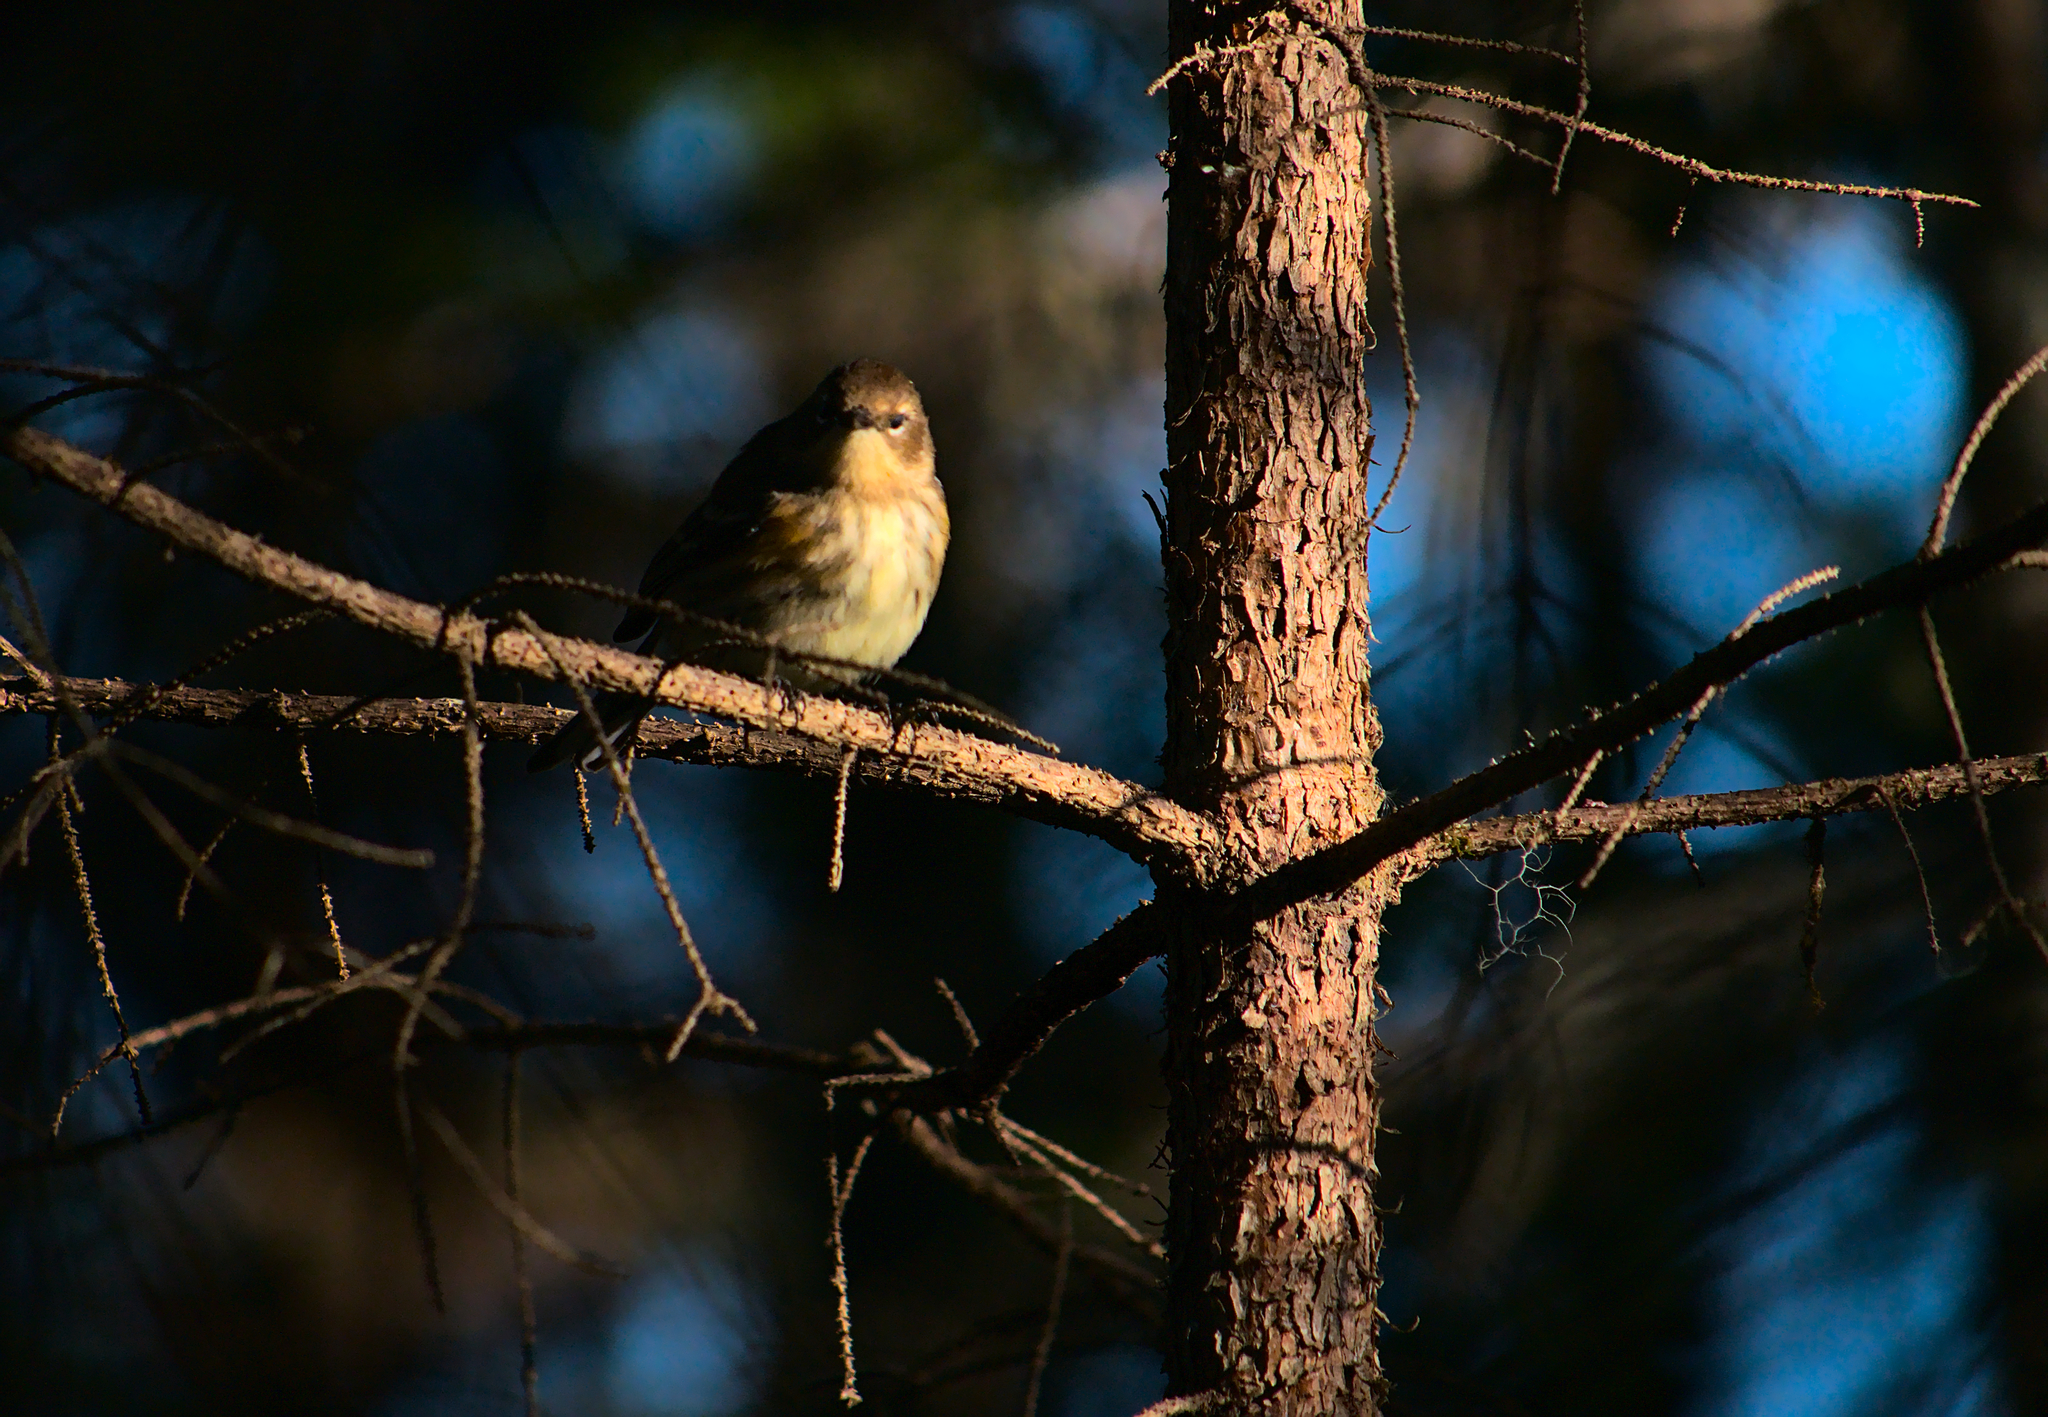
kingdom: Animalia
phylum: Chordata
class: Aves
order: Passeriformes
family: Parulidae
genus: Setophaga
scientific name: Setophaga coronata
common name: Myrtle warbler
